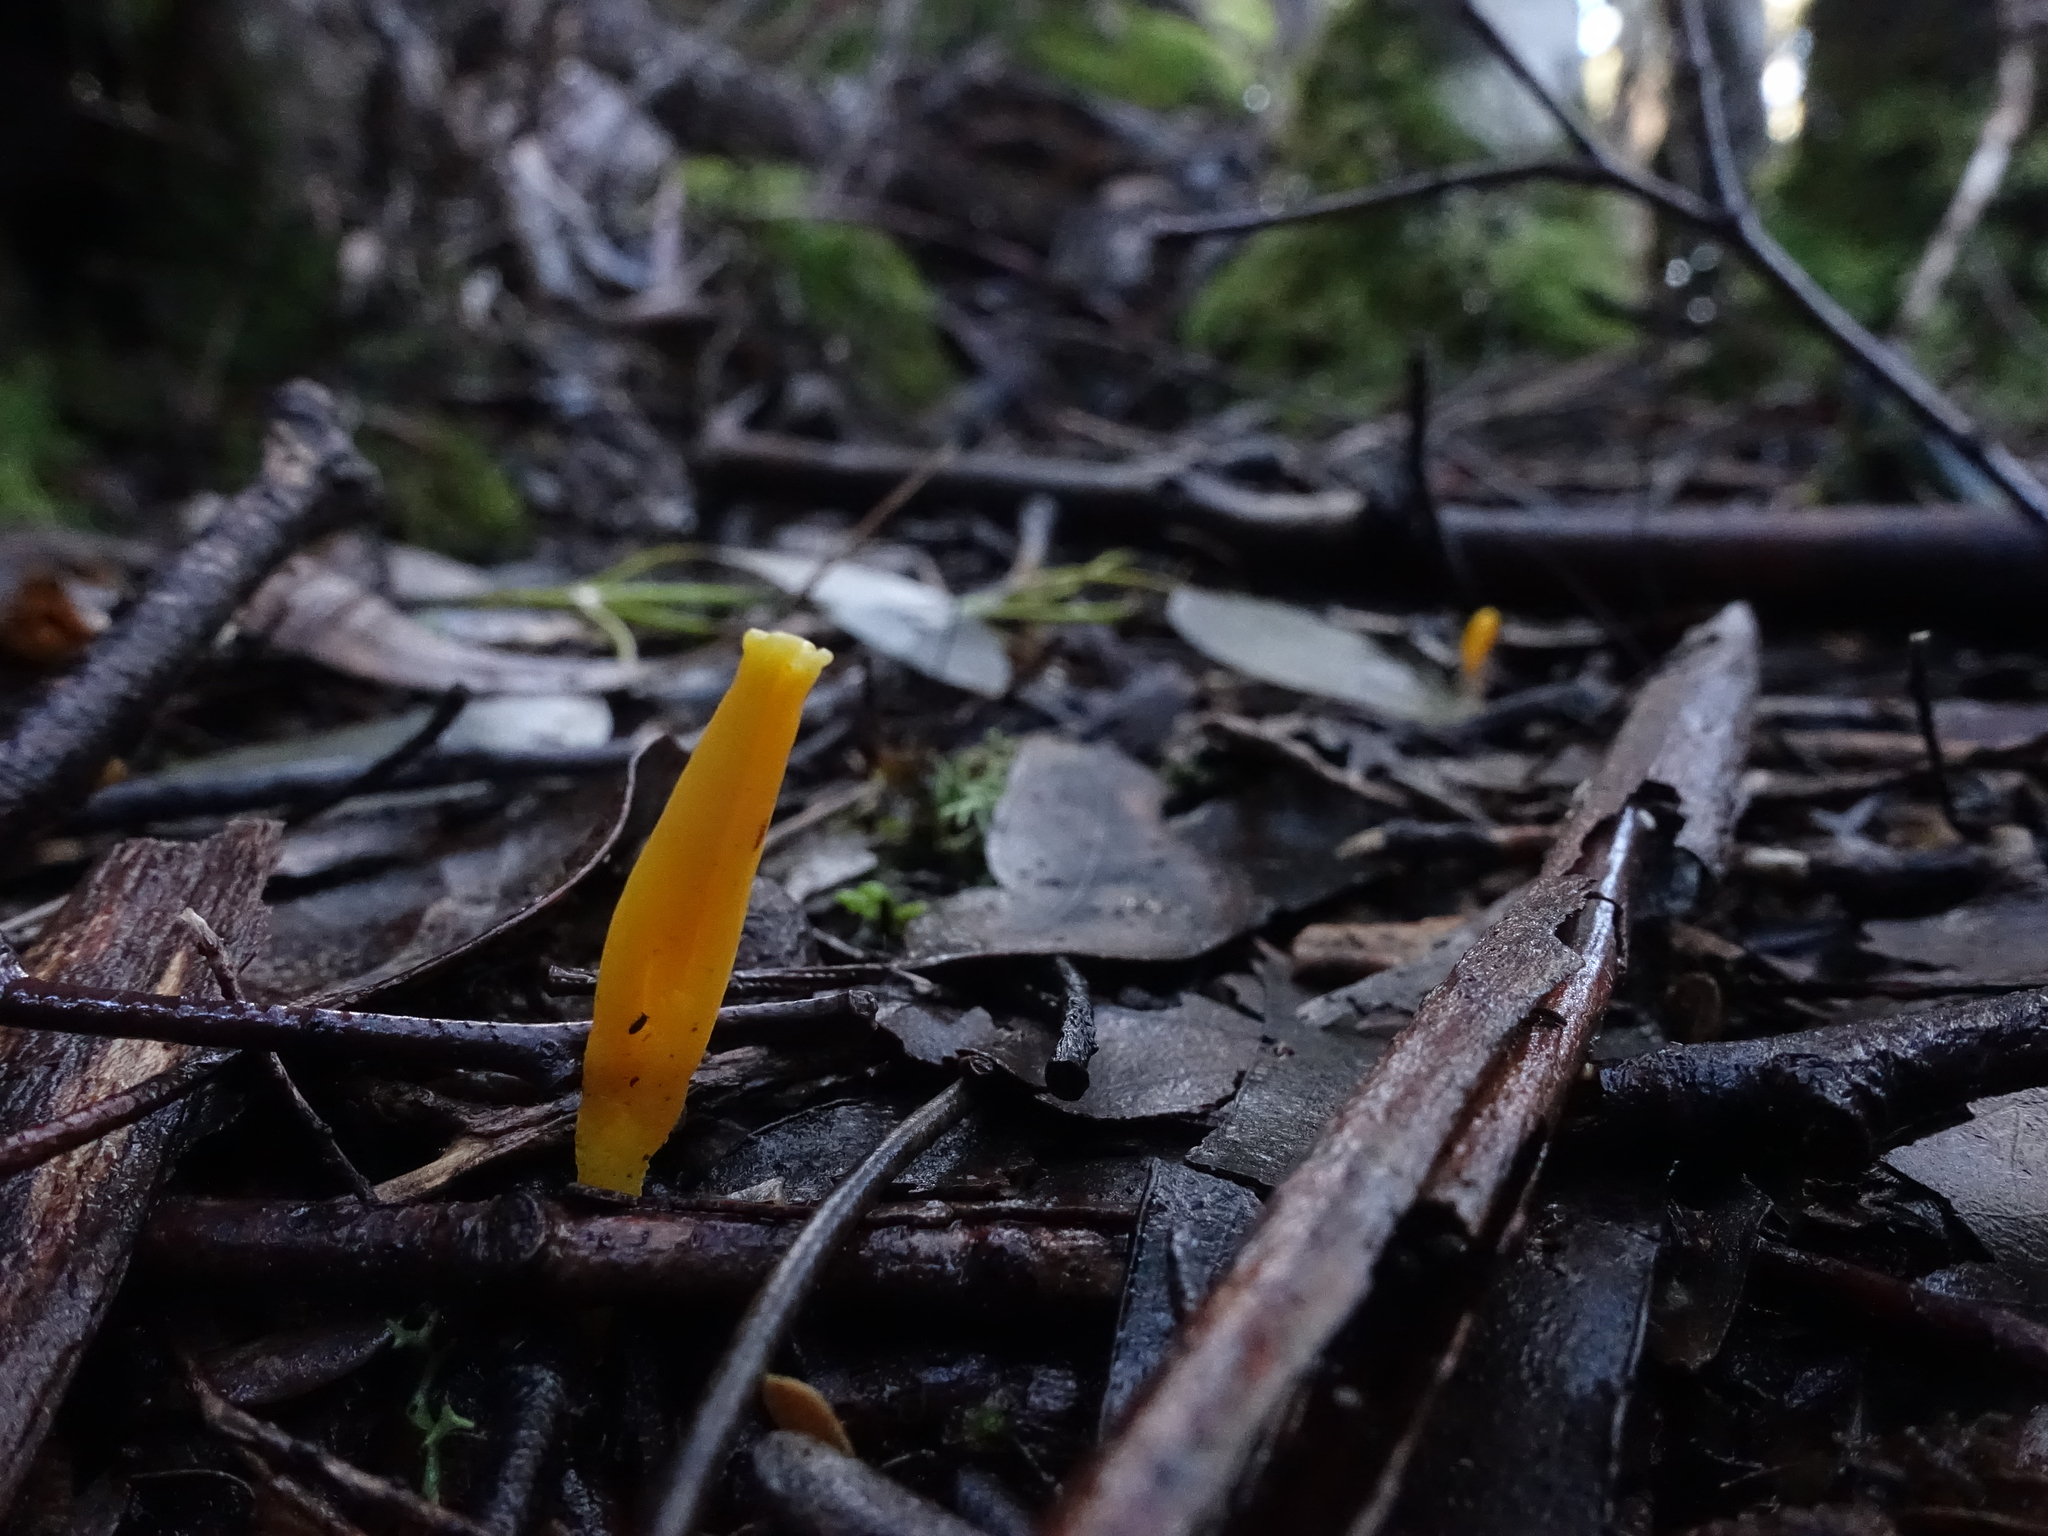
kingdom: Fungi
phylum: Basidiomycota
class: Agaricomycetes
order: Agaricales
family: Clavariaceae
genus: Clavulinopsis
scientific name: Clavulinopsis amoena
